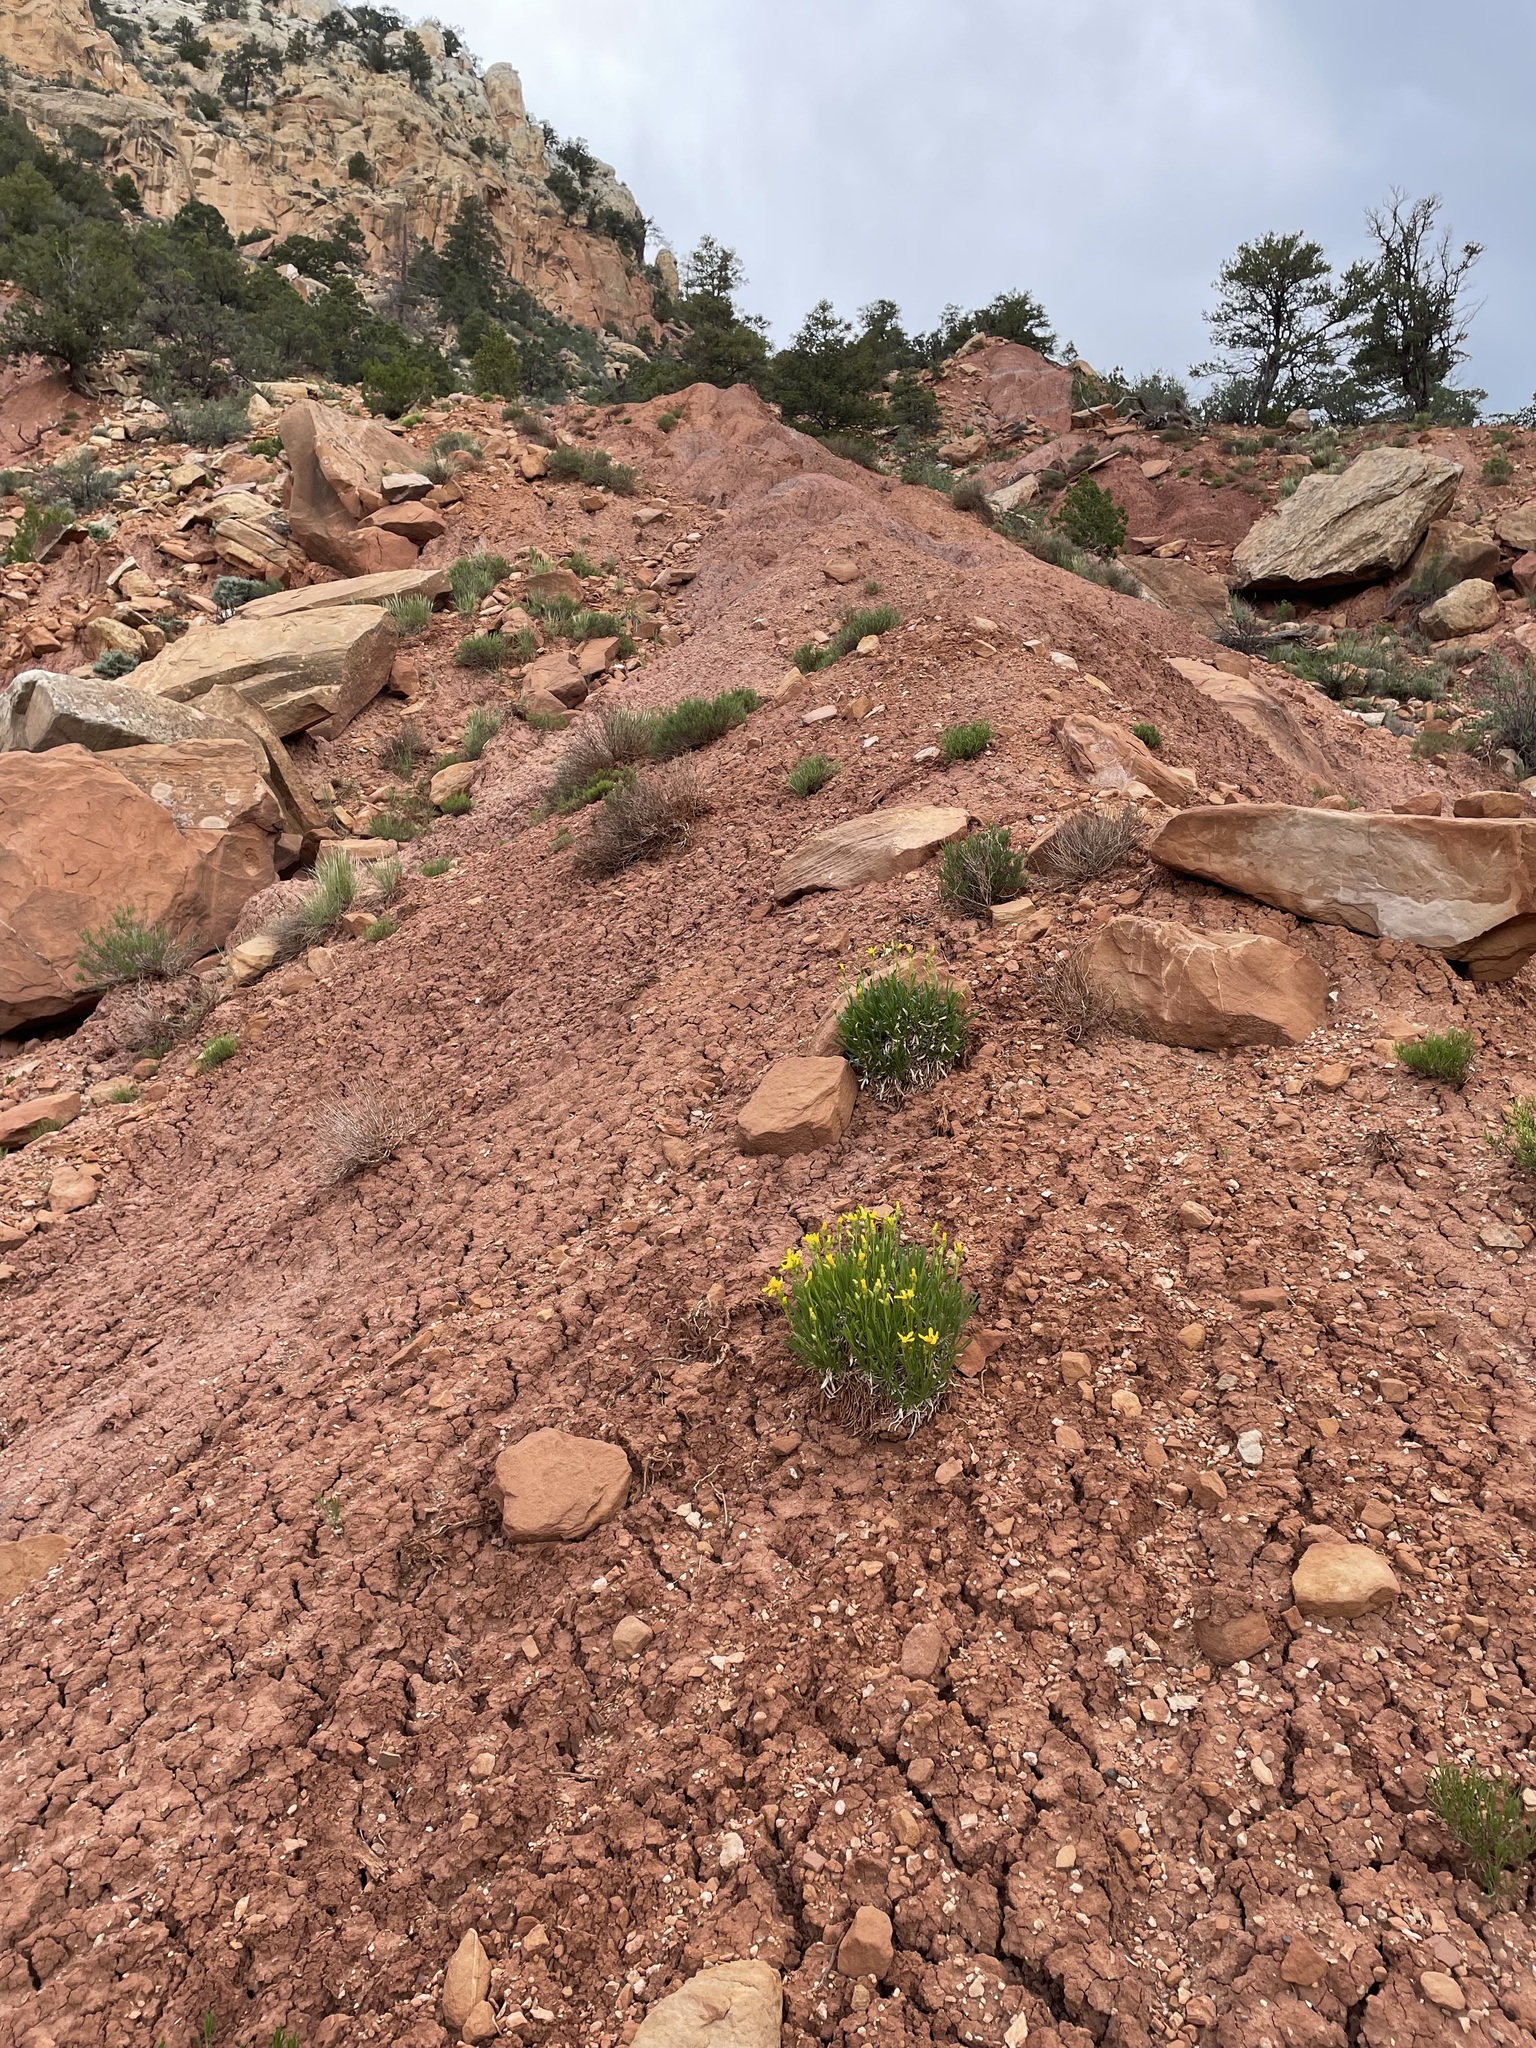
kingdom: Plantae
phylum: Tracheophyta
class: Magnoliopsida
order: Asterales
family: Asteraceae
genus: Stenotus
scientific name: Stenotus armerioides
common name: Thrifty goldenweed
